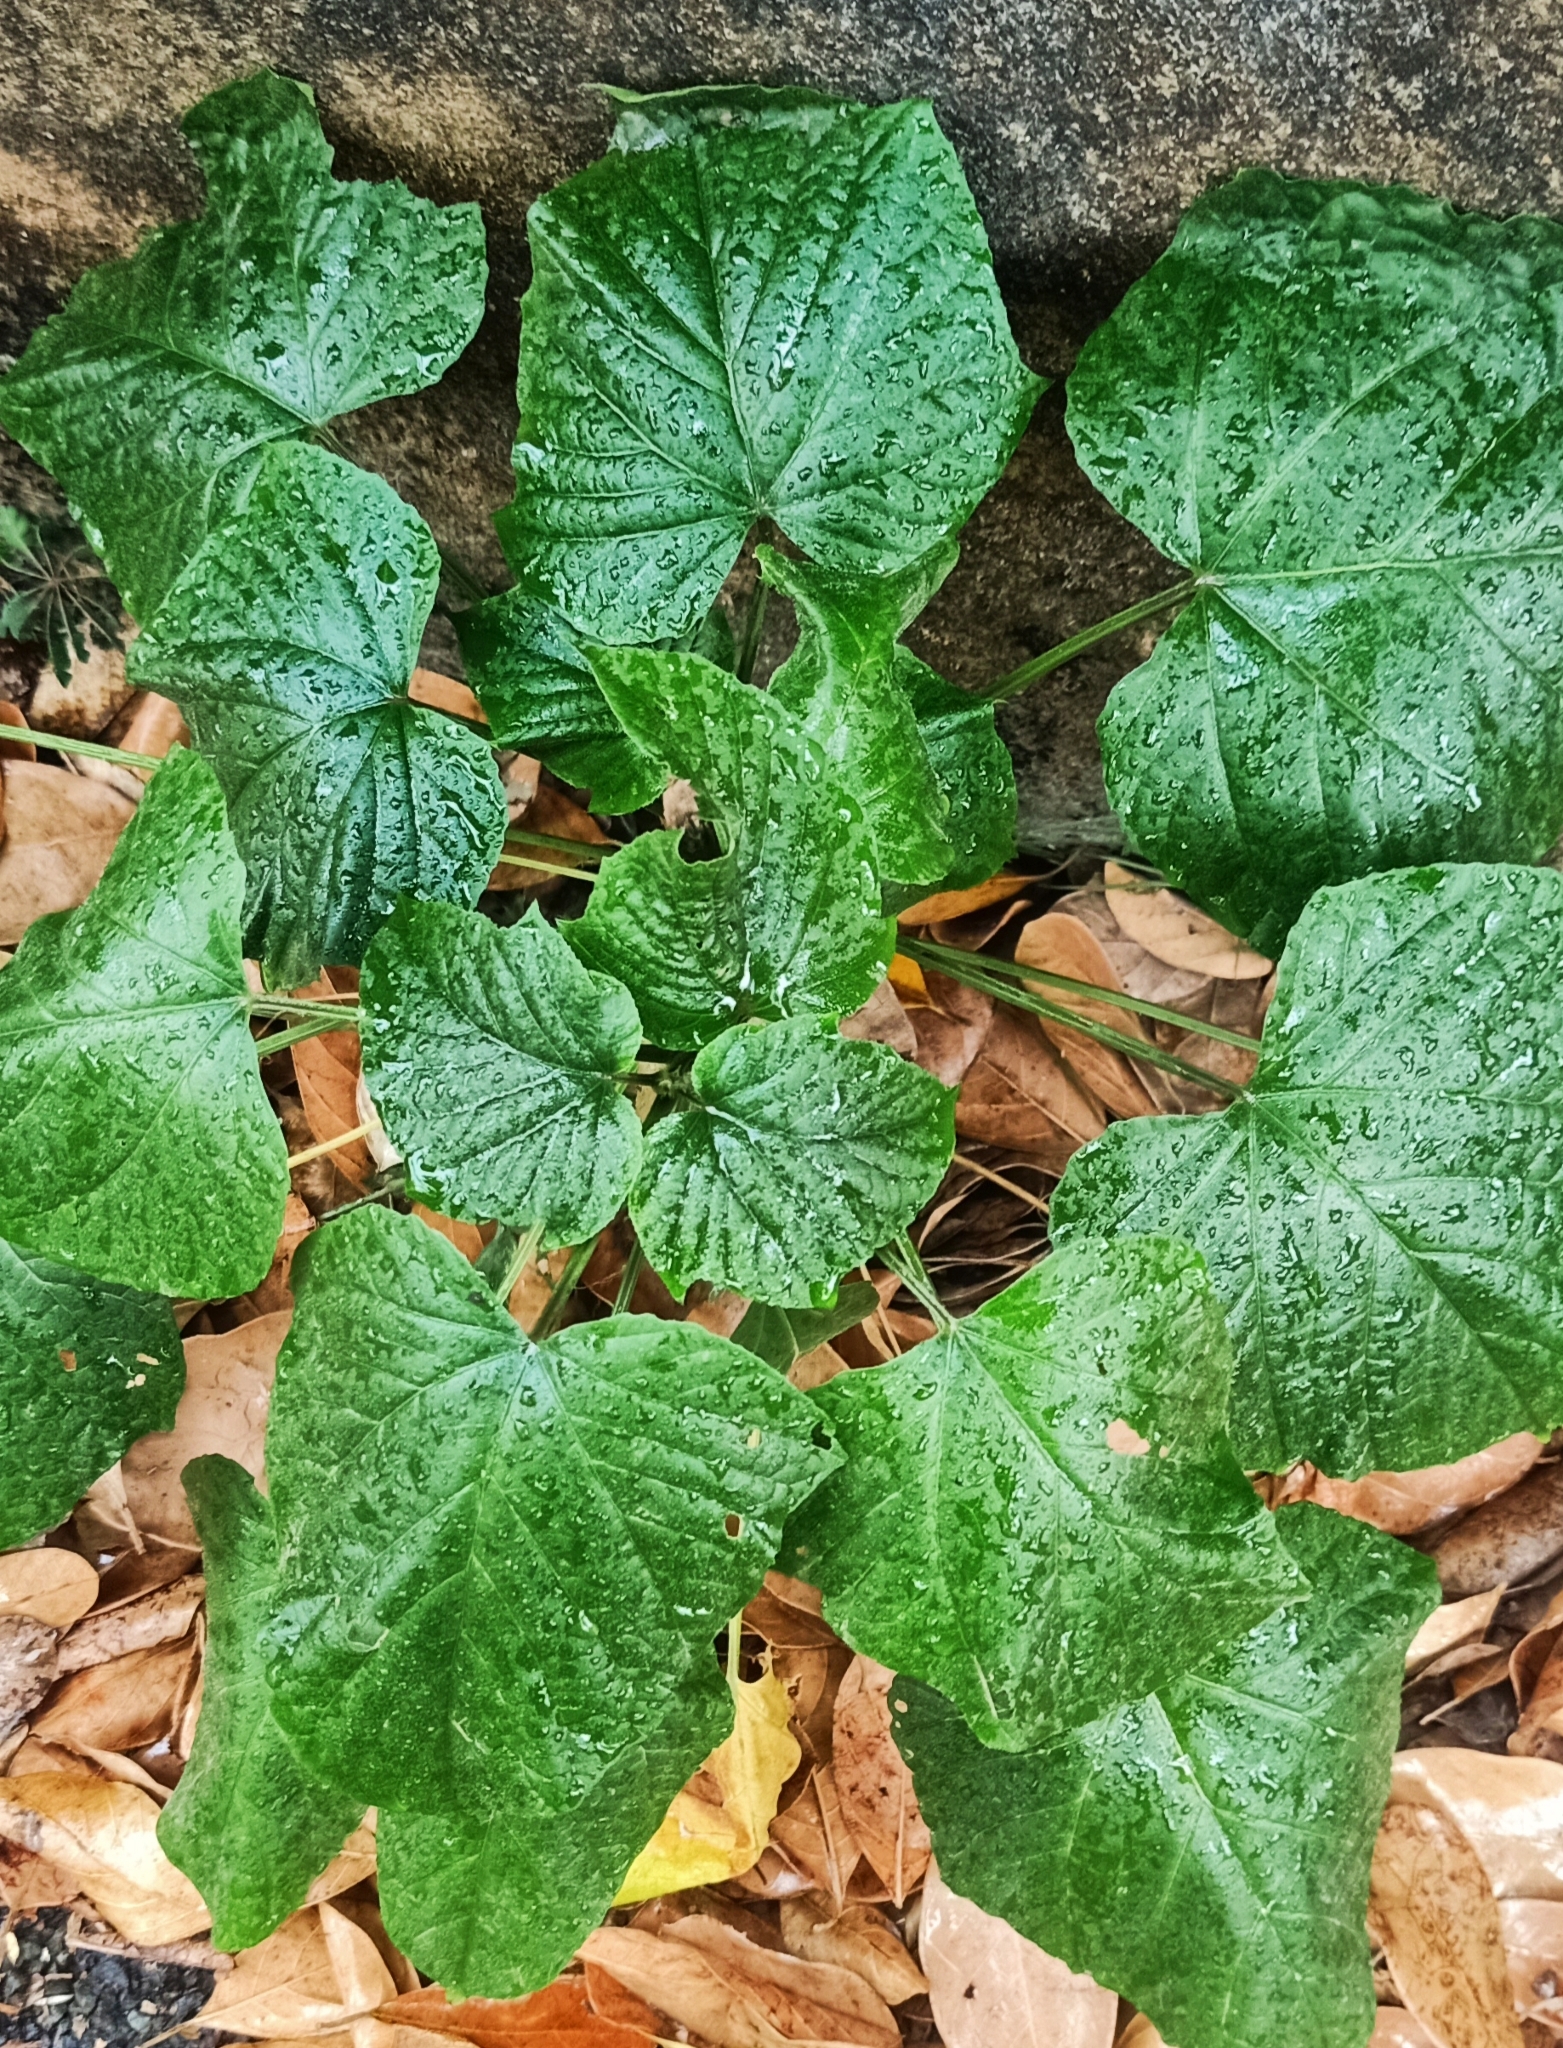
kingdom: Plantae
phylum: Tracheophyta
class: Magnoliopsida
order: Lamiales
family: Lamiaceae
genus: Clerodendrum
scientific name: Clerodendrum paniculatum
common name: Pagoda-flower
